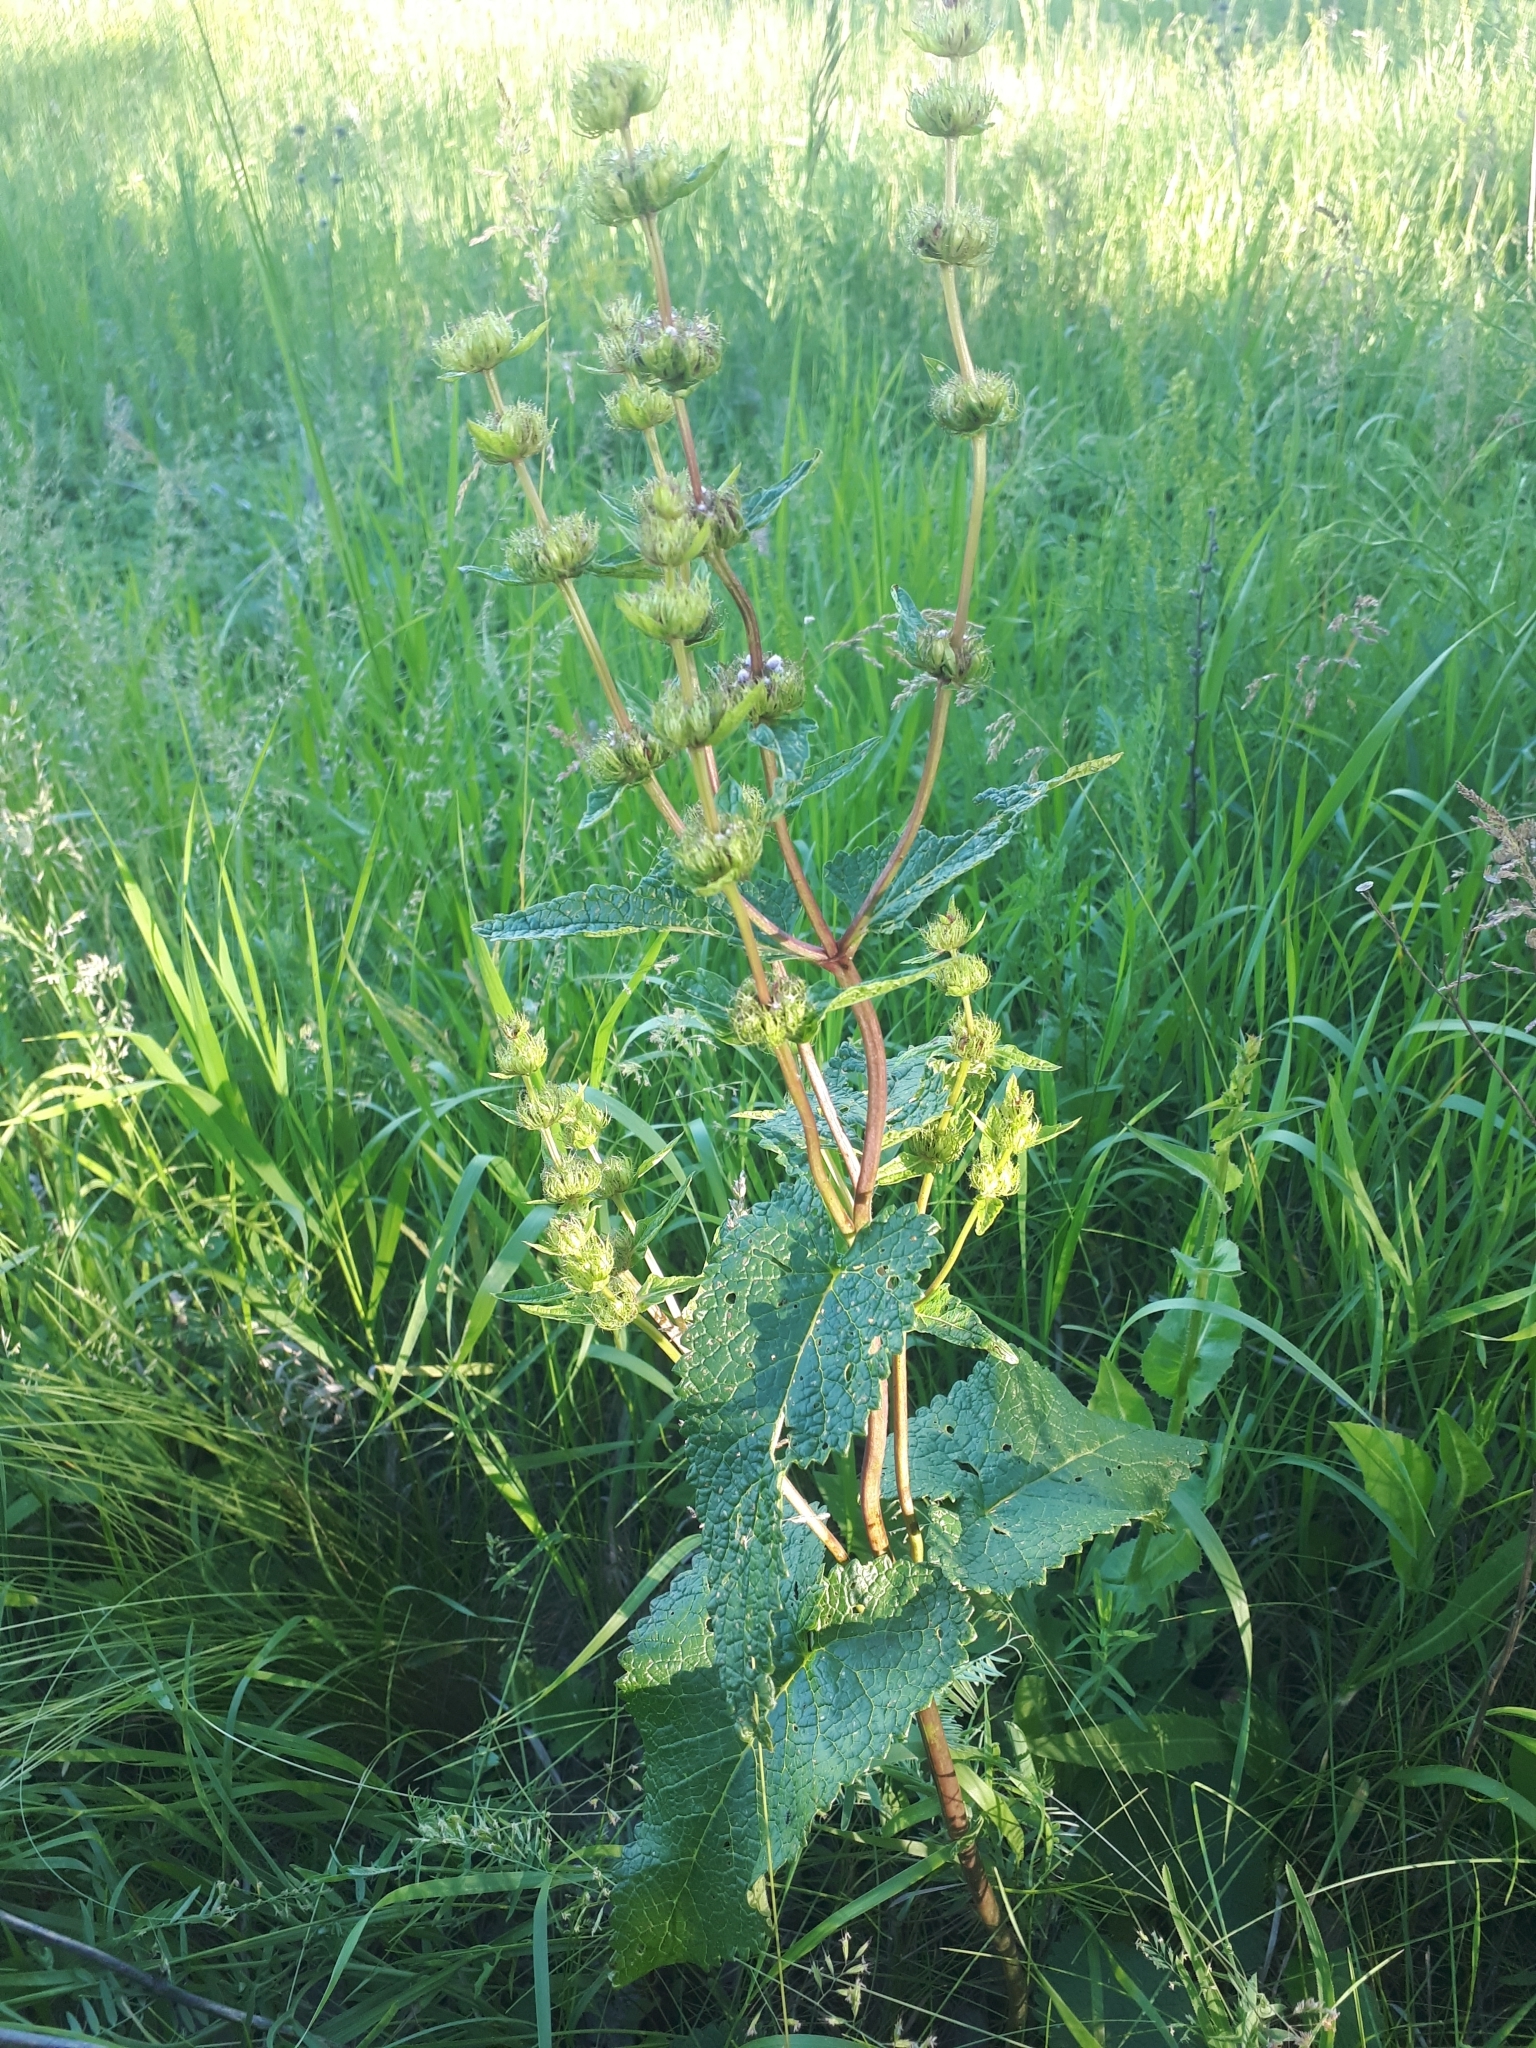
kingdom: Plantae
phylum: Tracheophyta
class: Magnoliopsida
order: Lamiales
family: Lamiaceae
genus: Phlomoides
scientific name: Phlomoides tuberosa
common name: Tuberous jerusalem sage
